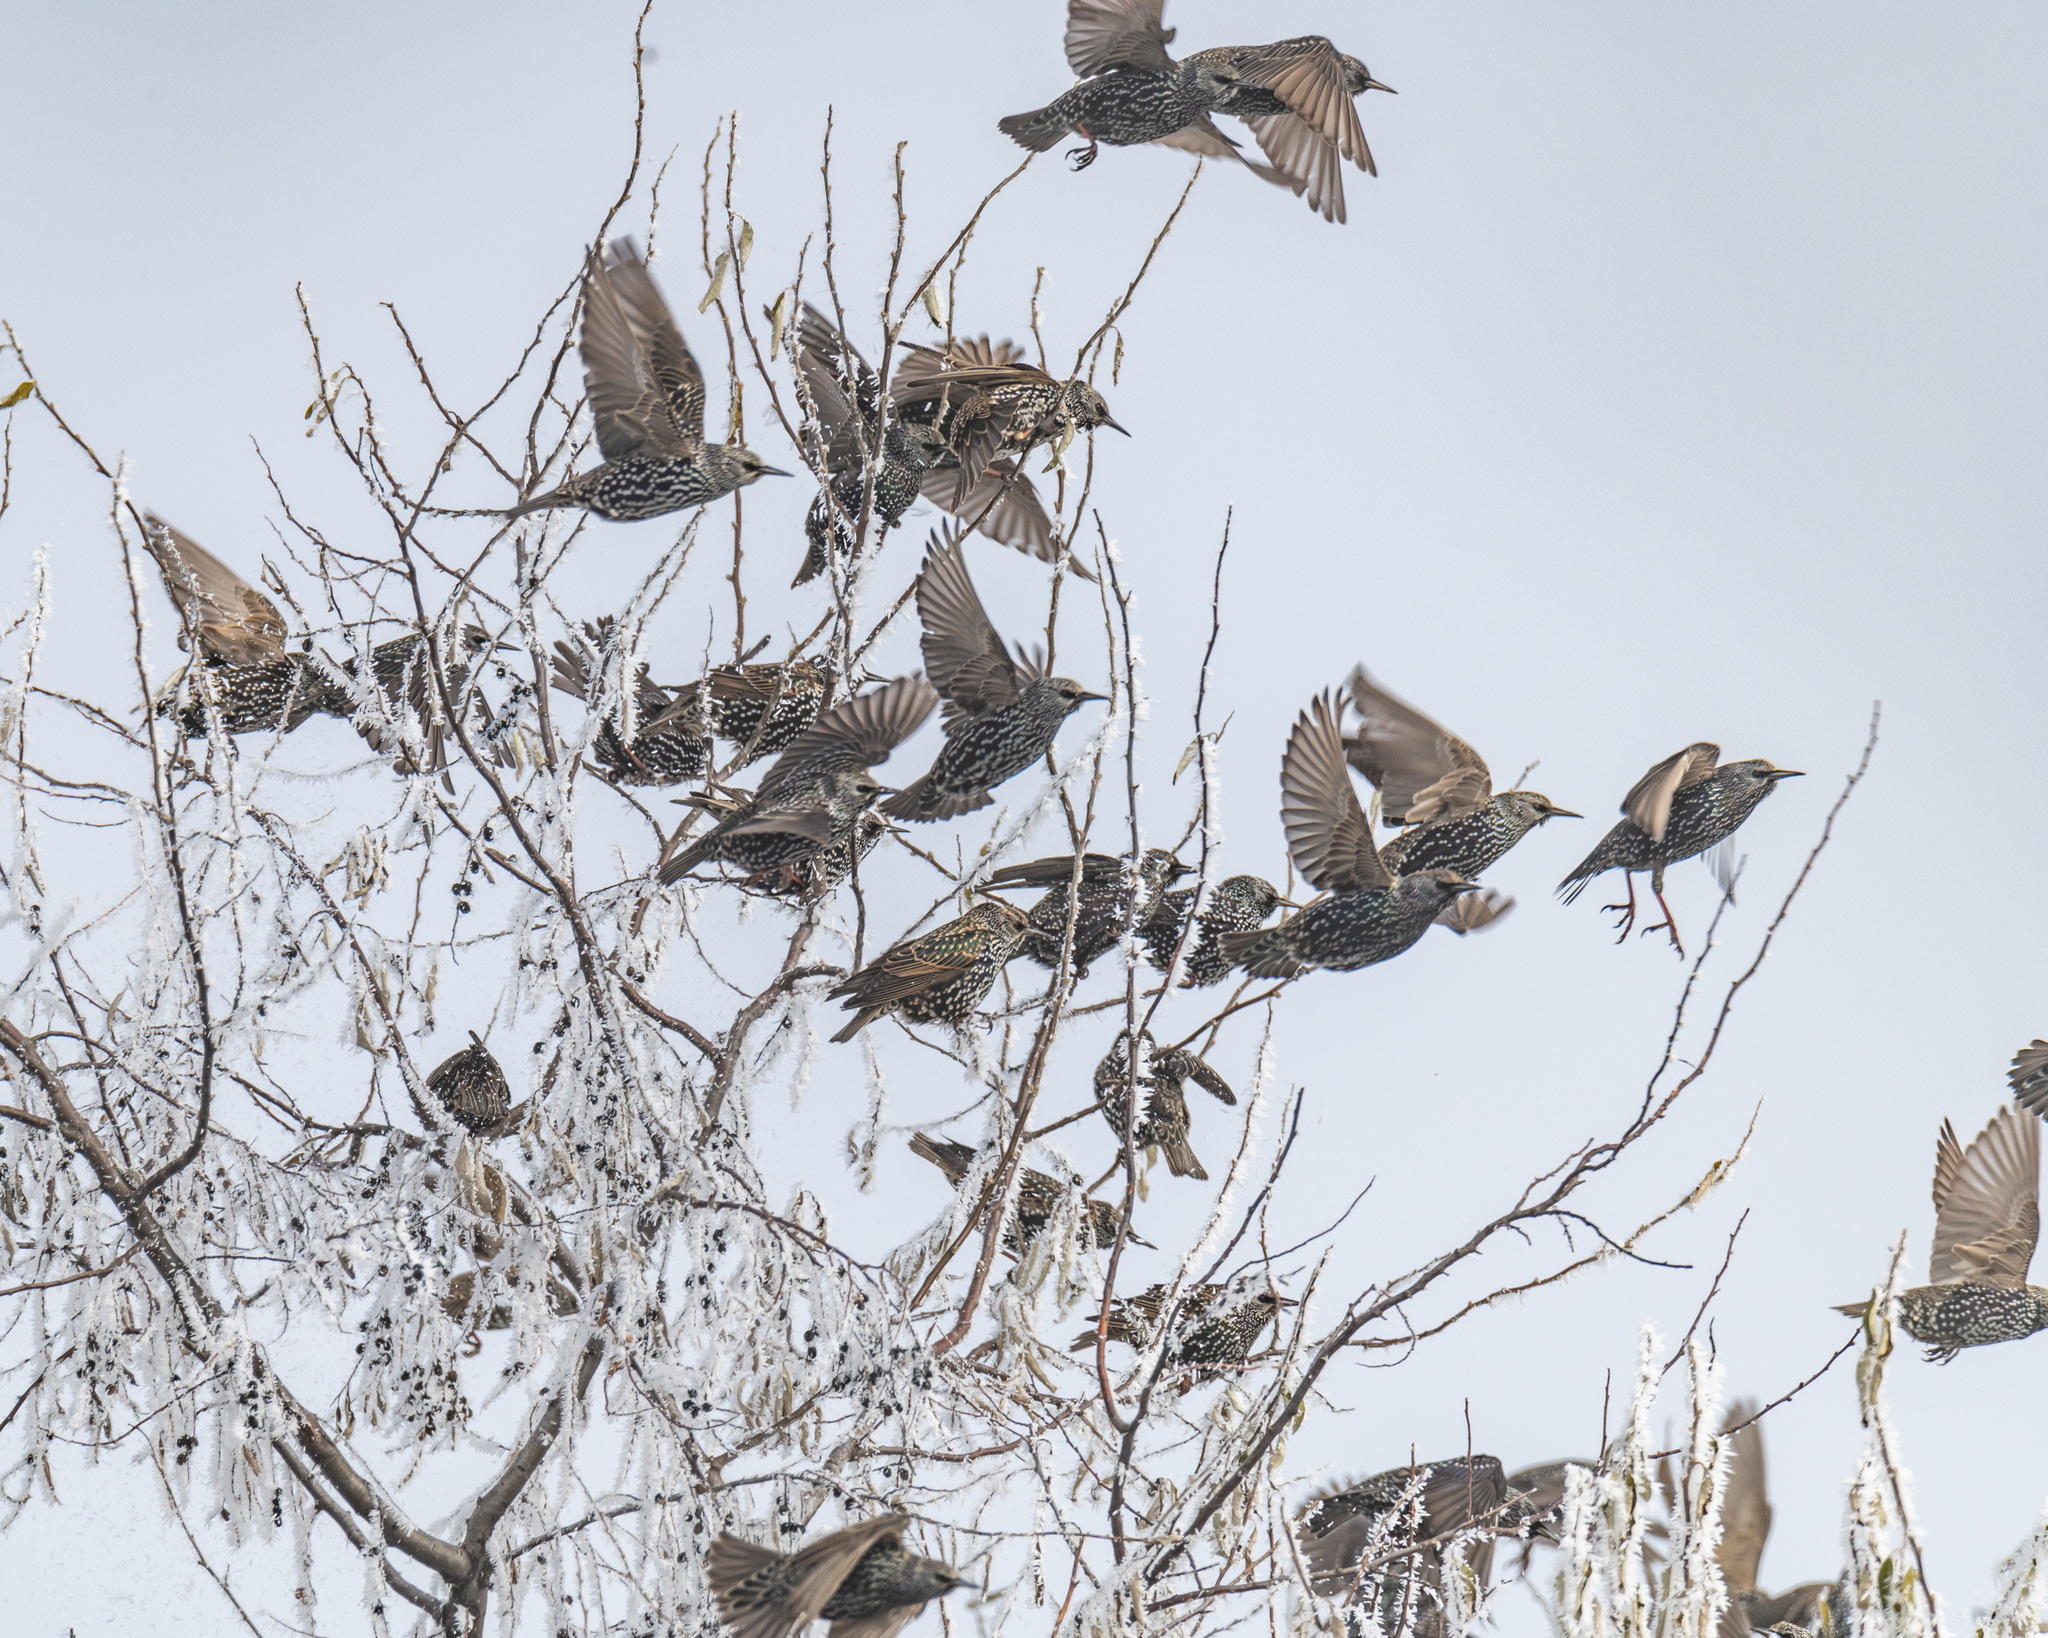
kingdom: Animalia
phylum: Chordata
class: Aves
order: Passeriformes
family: Sturnidae
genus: Sturnus
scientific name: Sturnus vulgaris
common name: Common starling
